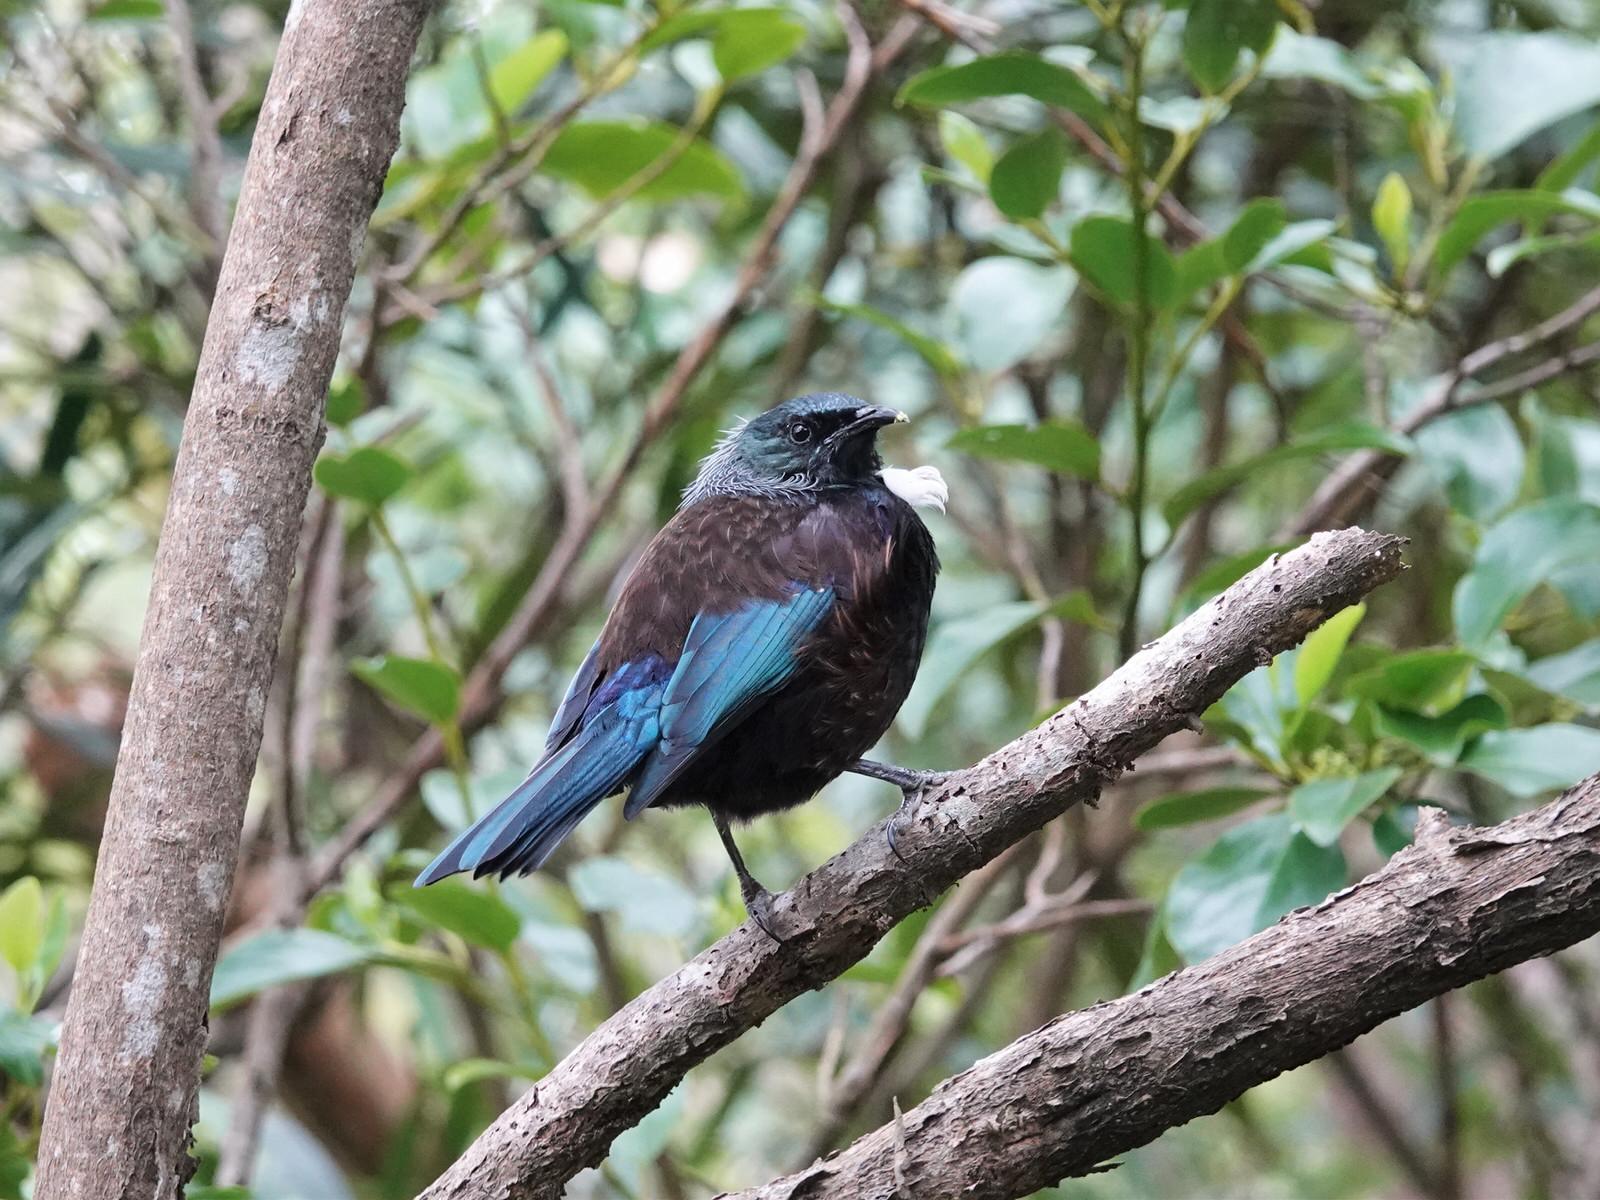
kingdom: Animalia
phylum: Chordata
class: Aves
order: Passeriformes
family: Meliphagidae
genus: Prosthemadera
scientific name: Prosthemadera novaeseelandiae
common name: Tui
